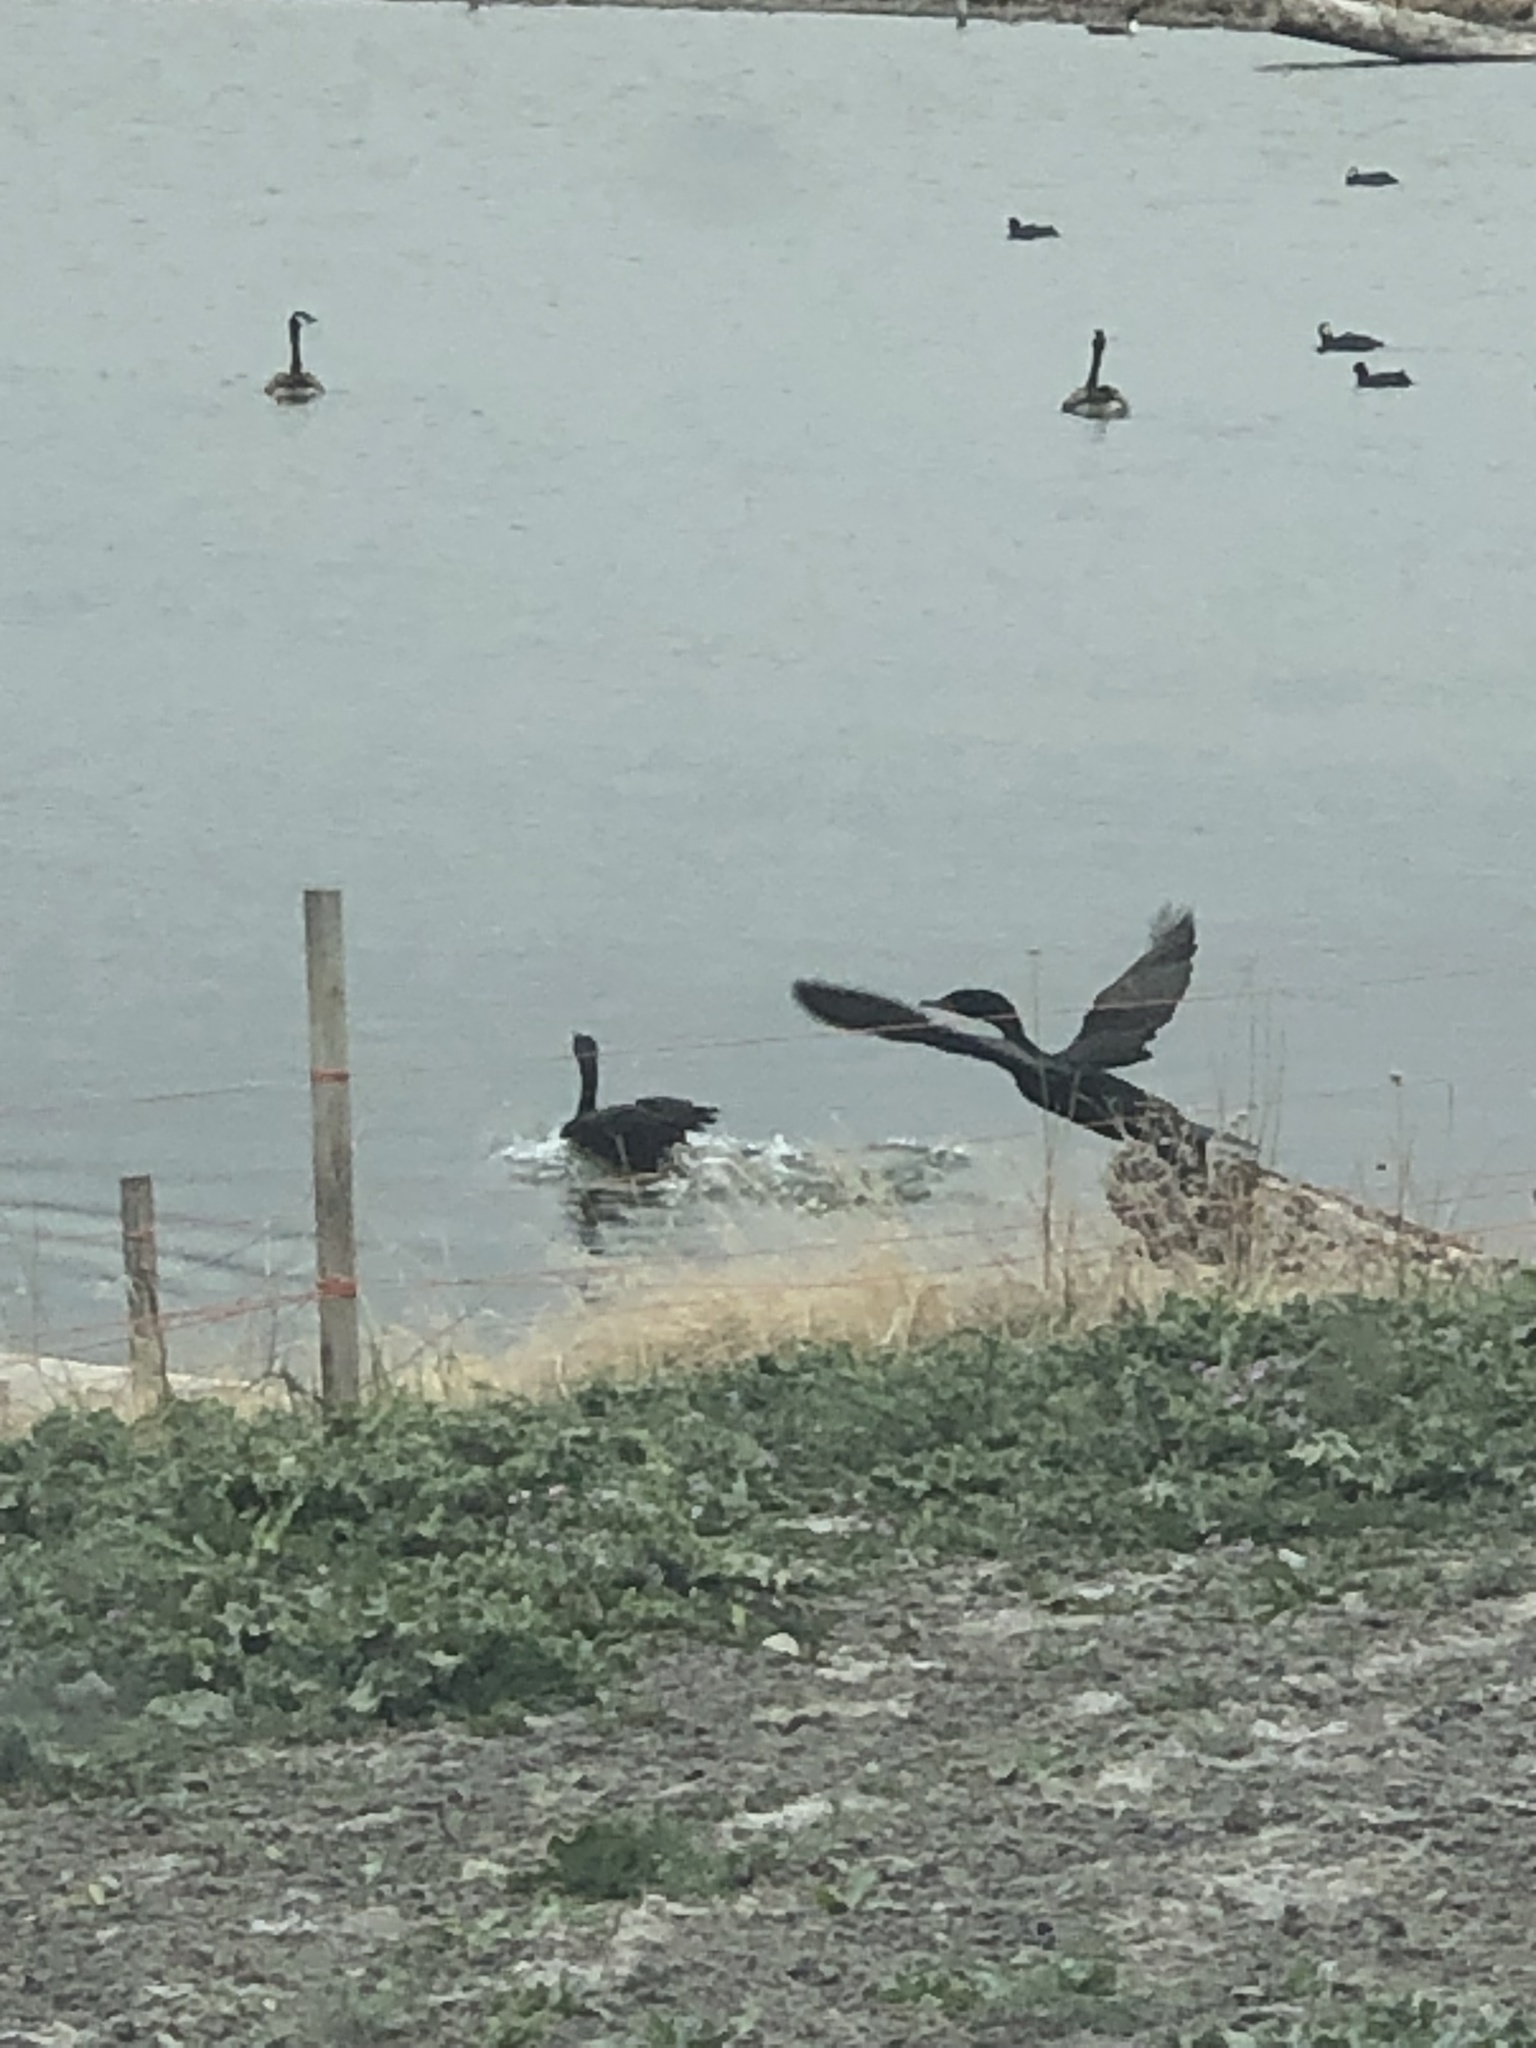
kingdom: Animalia
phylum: Chordata
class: Aves
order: Suliformes
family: Phalacrocoracidae
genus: Phalacrocorax
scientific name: Phalacrocorax auritus
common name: Double-crested cormorant
